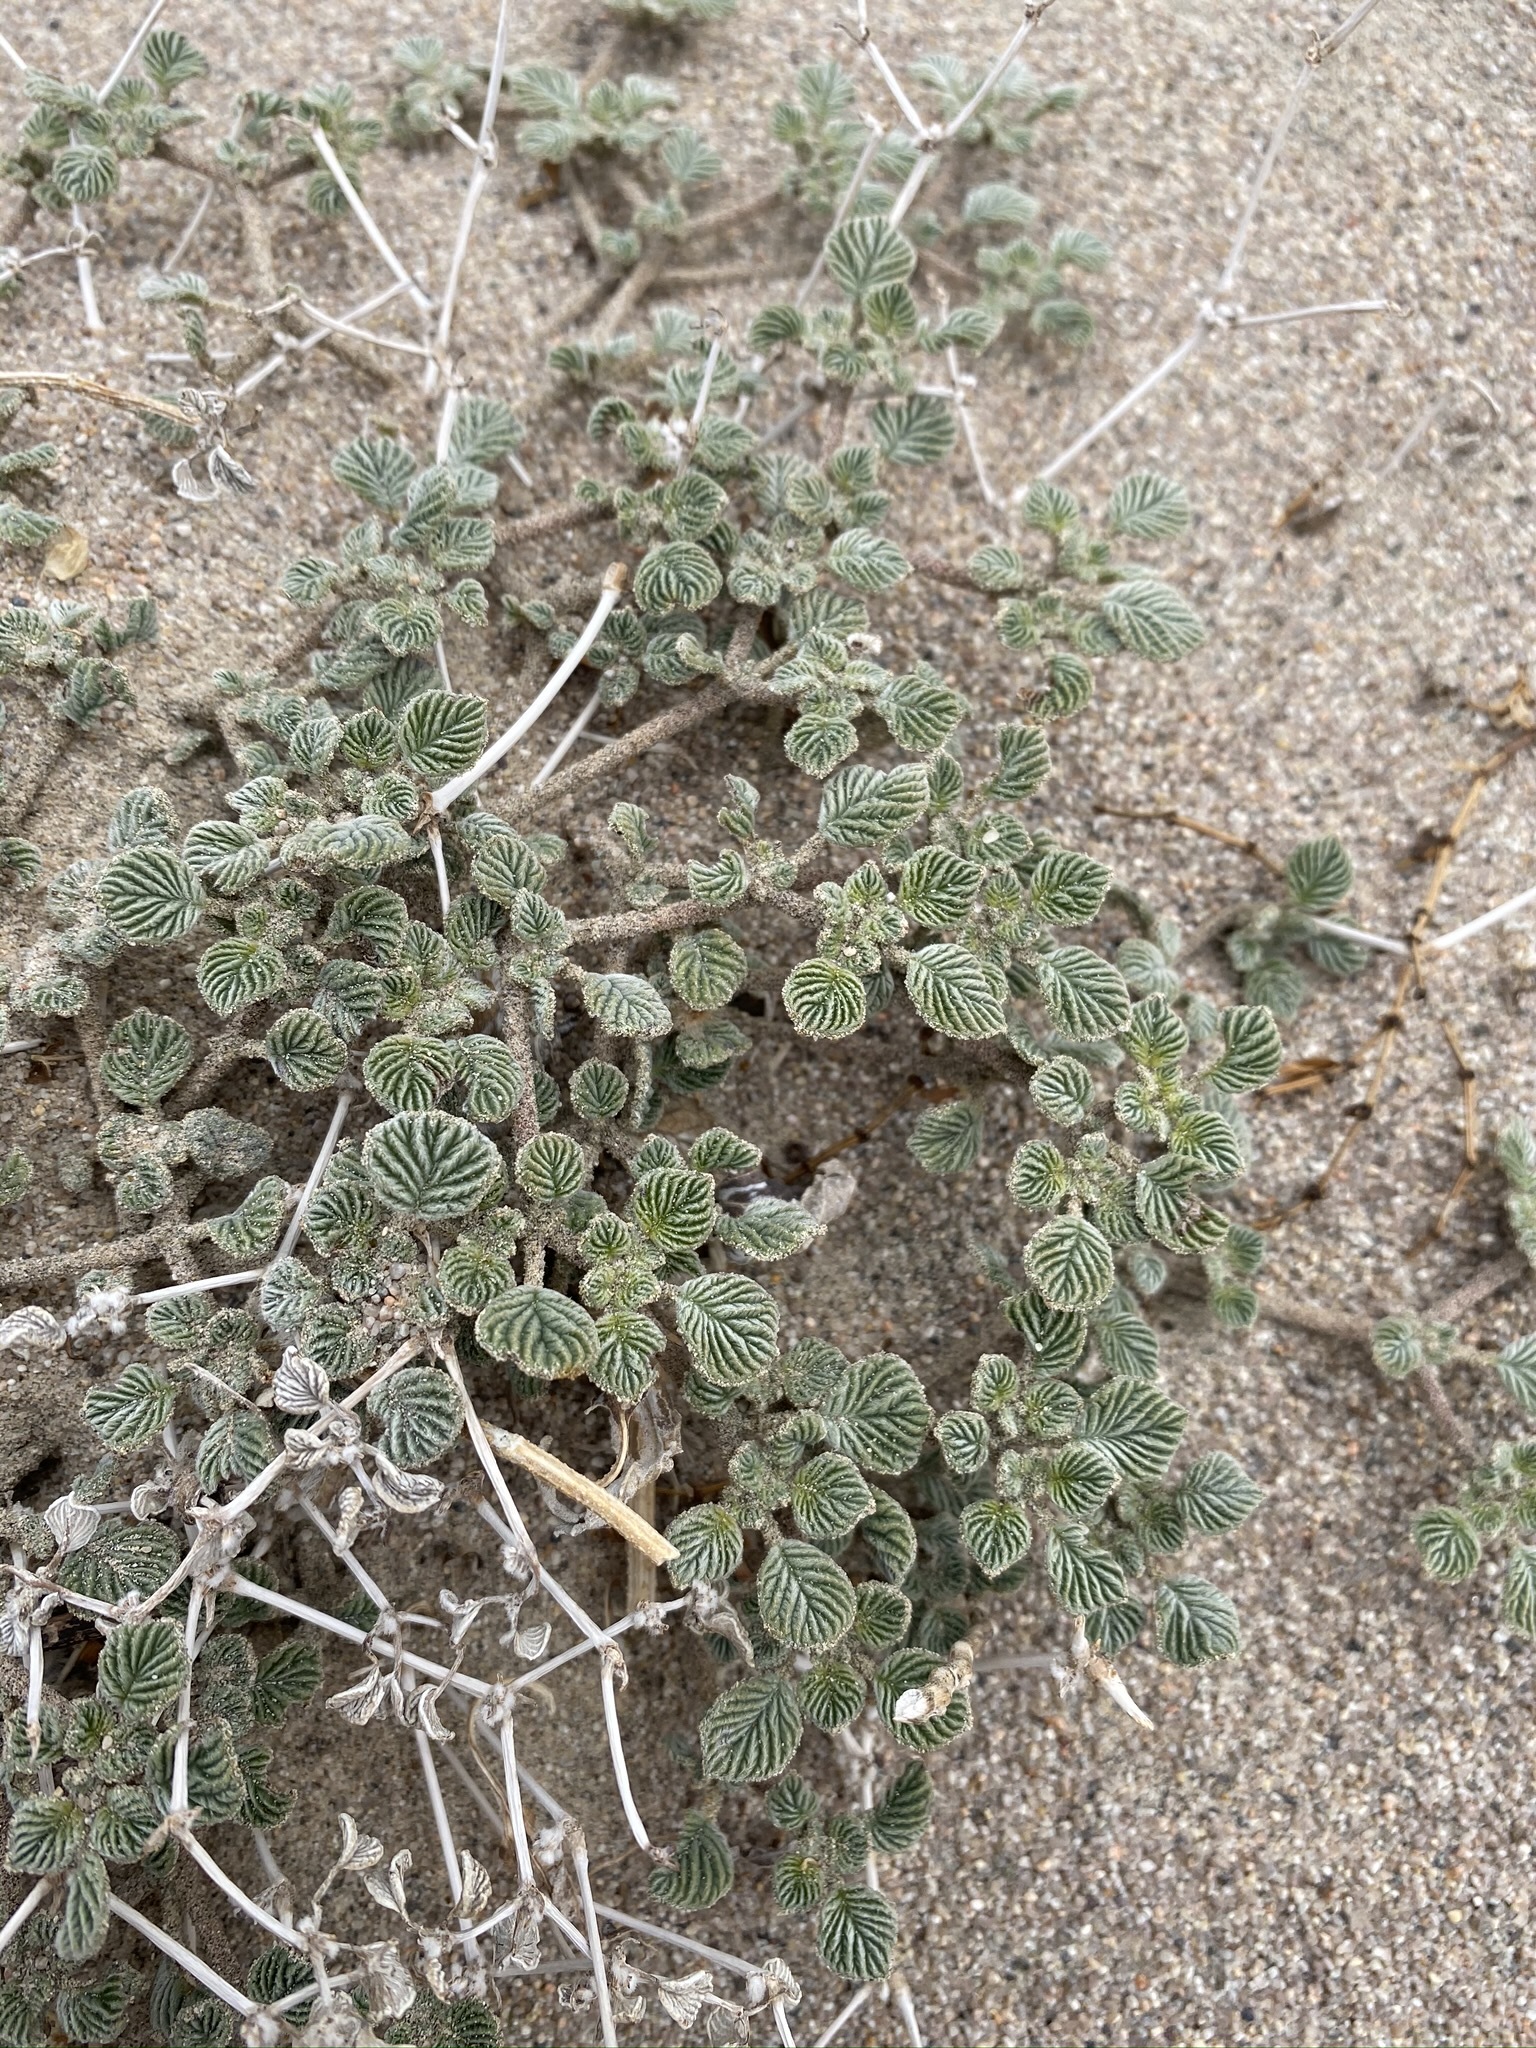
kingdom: Plantae
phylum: Tracheophyta
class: Magnoliopsida
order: Boraginales
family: Ehretiaceae
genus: Tiquilia
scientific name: Tiquilia plicata
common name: Fan-leaf tiquilia
